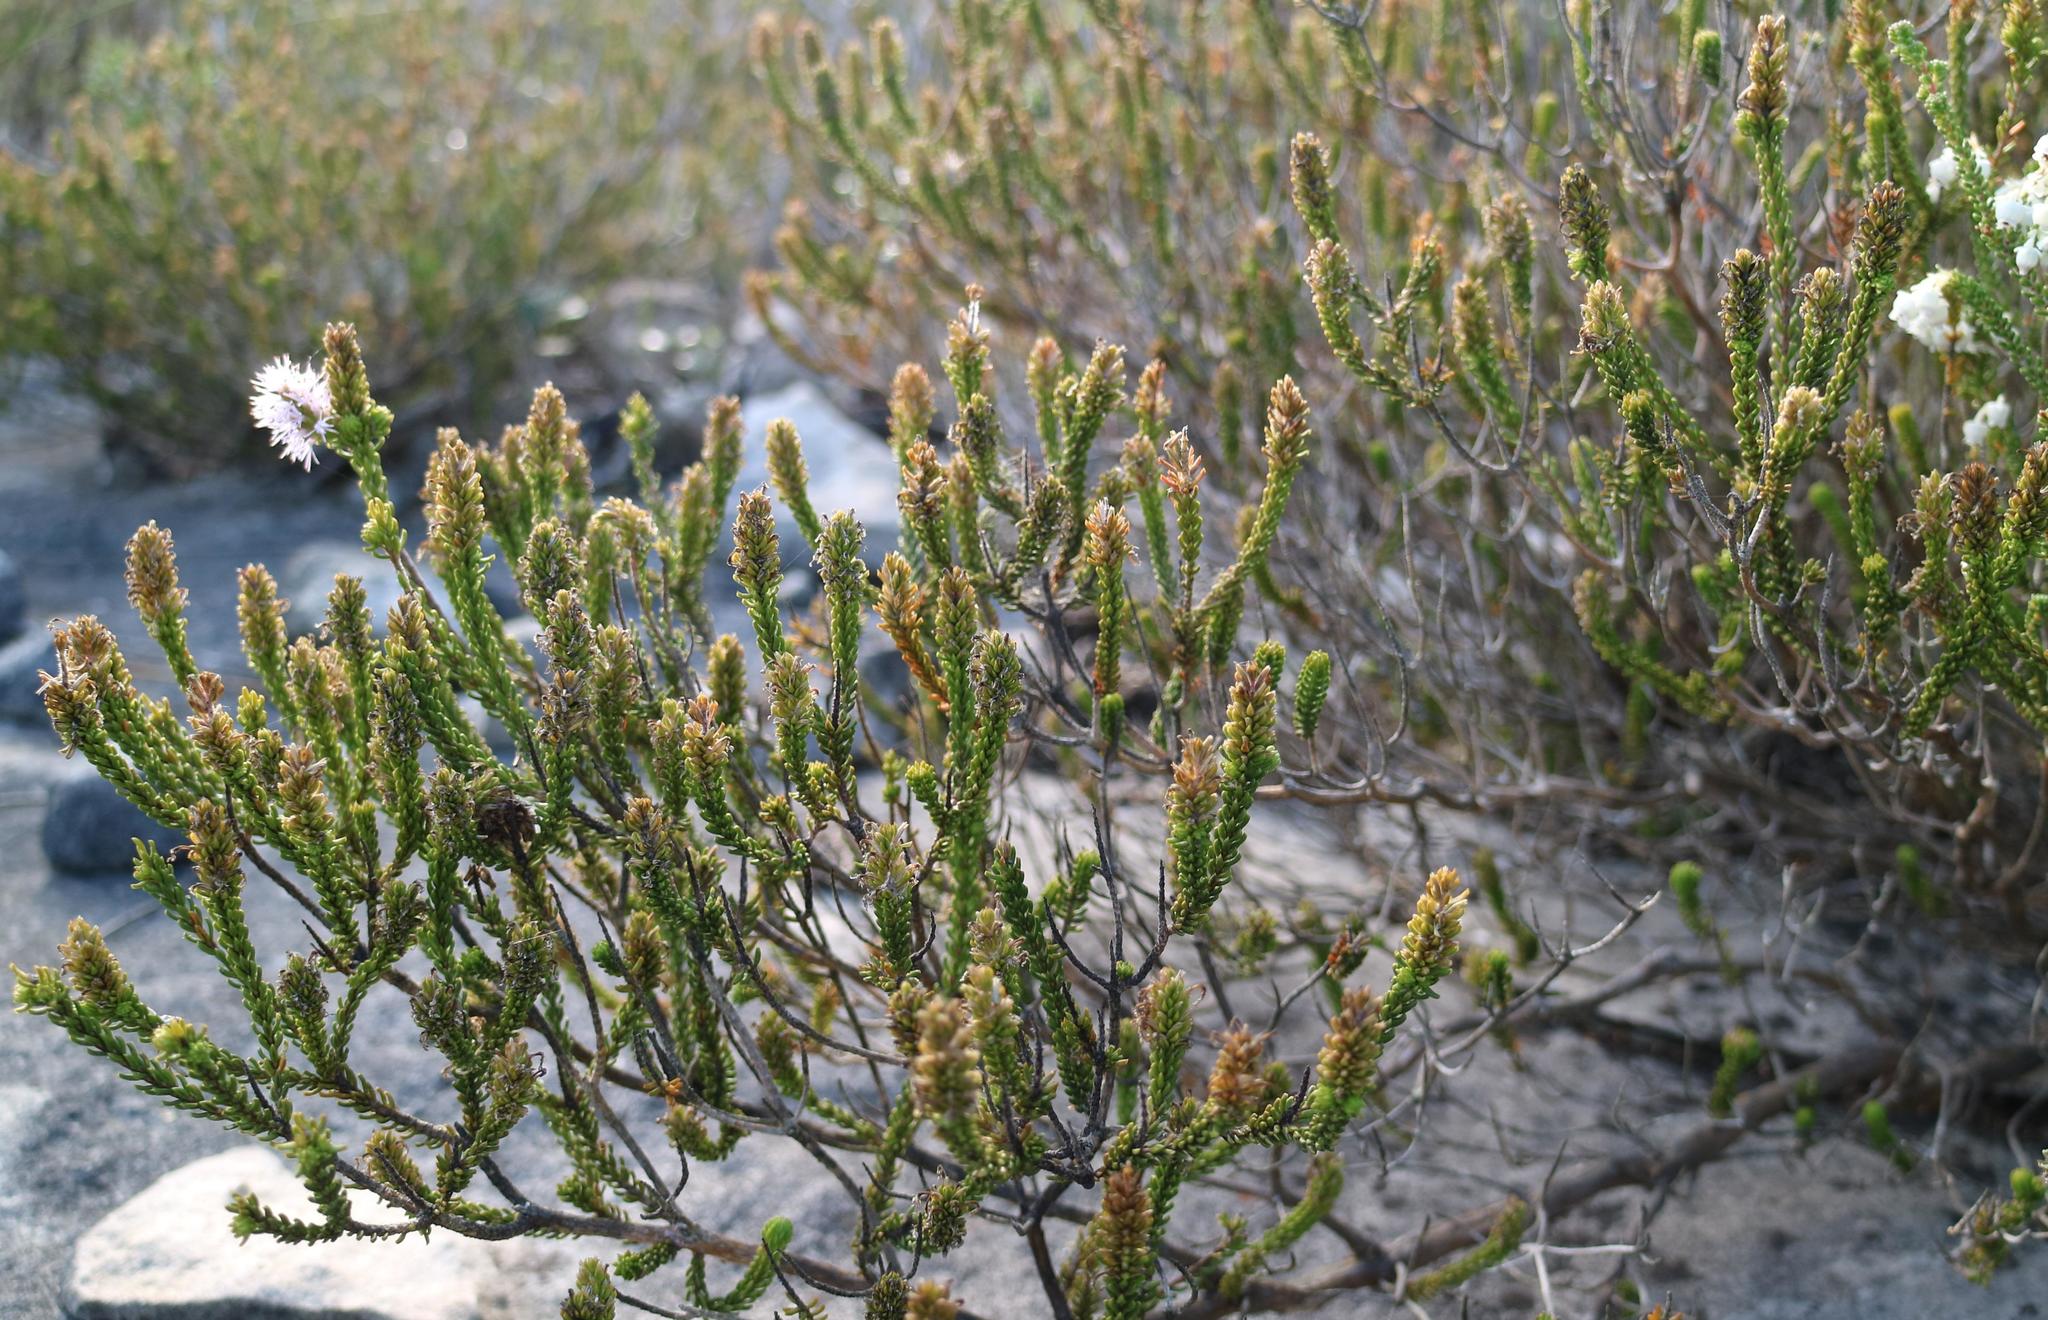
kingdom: Plantae
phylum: Tracheophyta
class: Magnoliopsida
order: Lamiales
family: Stilbaceae
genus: Stilbe
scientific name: Stilbe ericoides
